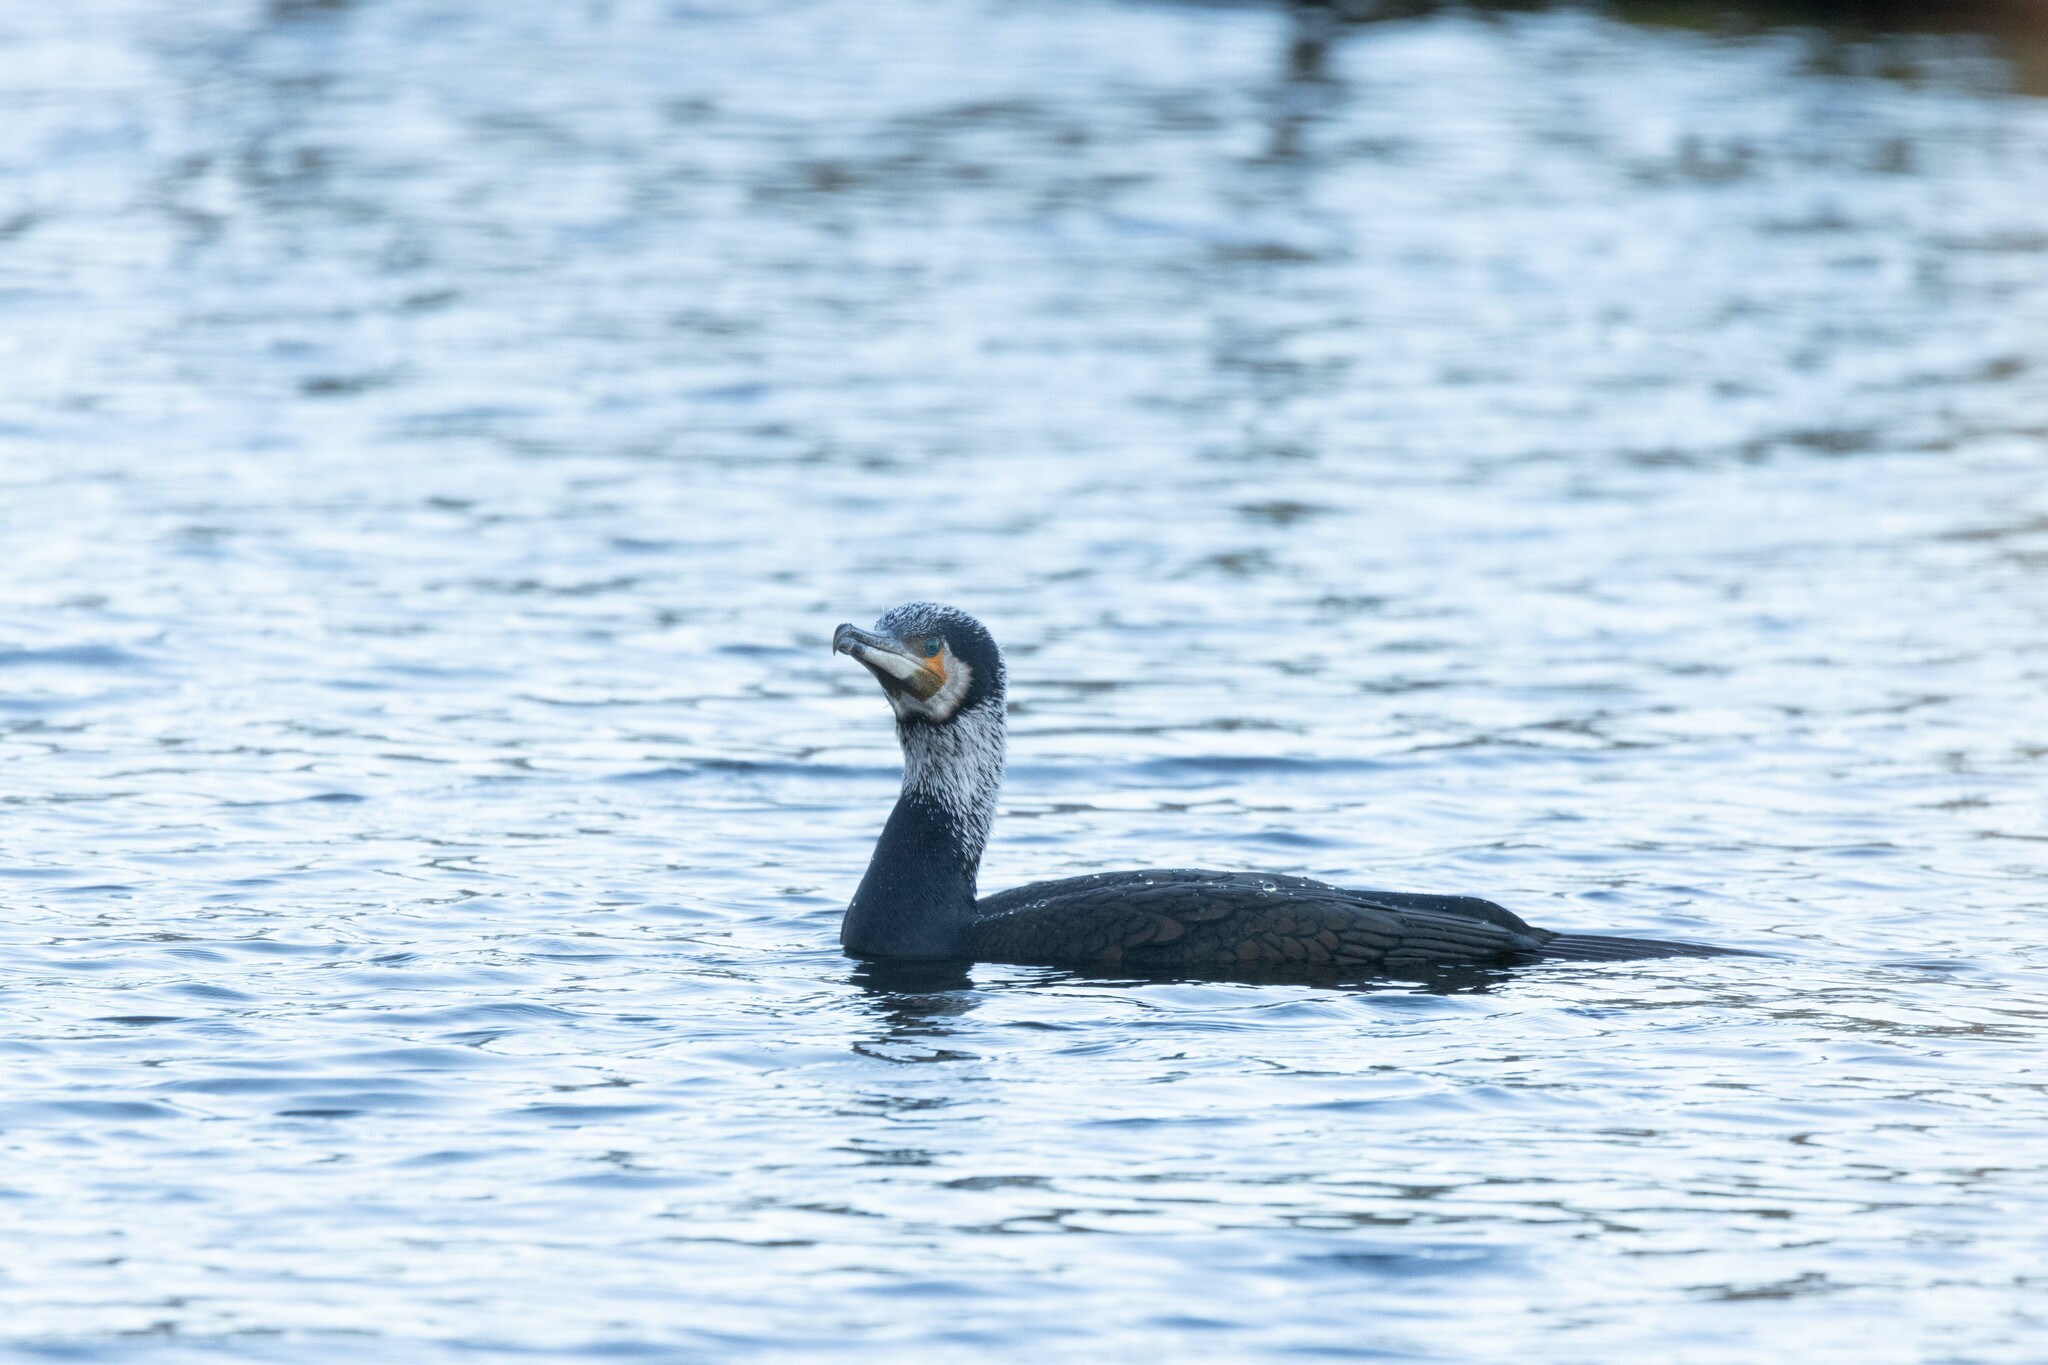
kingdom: Animalia
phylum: Chordata
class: Aves
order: Suliformes
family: Phalacrocoracidae
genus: Phalacrocorax
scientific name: Phalacrocorax carbo
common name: Great cormorant
